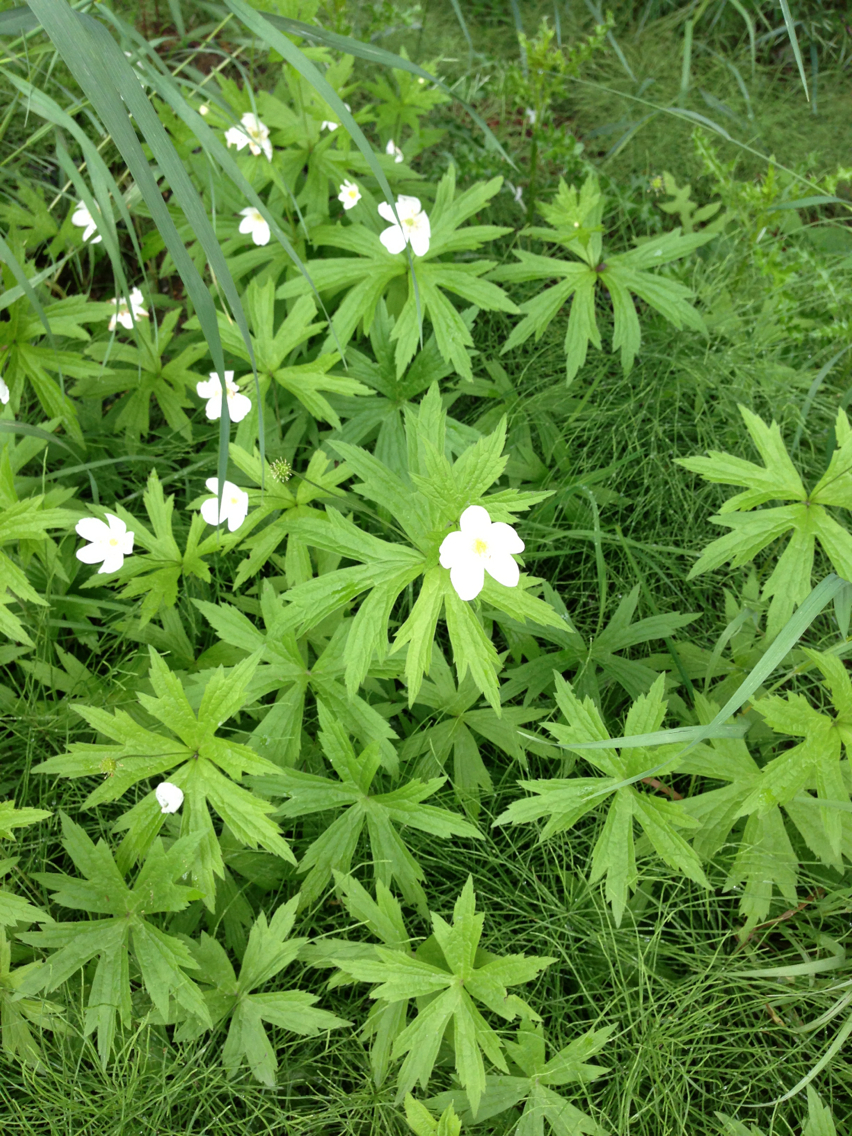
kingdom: Plantae
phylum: Tracheophyta
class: Magnoliopsida
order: Ranunculales
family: Ranunculaceae
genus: Anemonastrum
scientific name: Anemonastrum canadense
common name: Canada anemone
